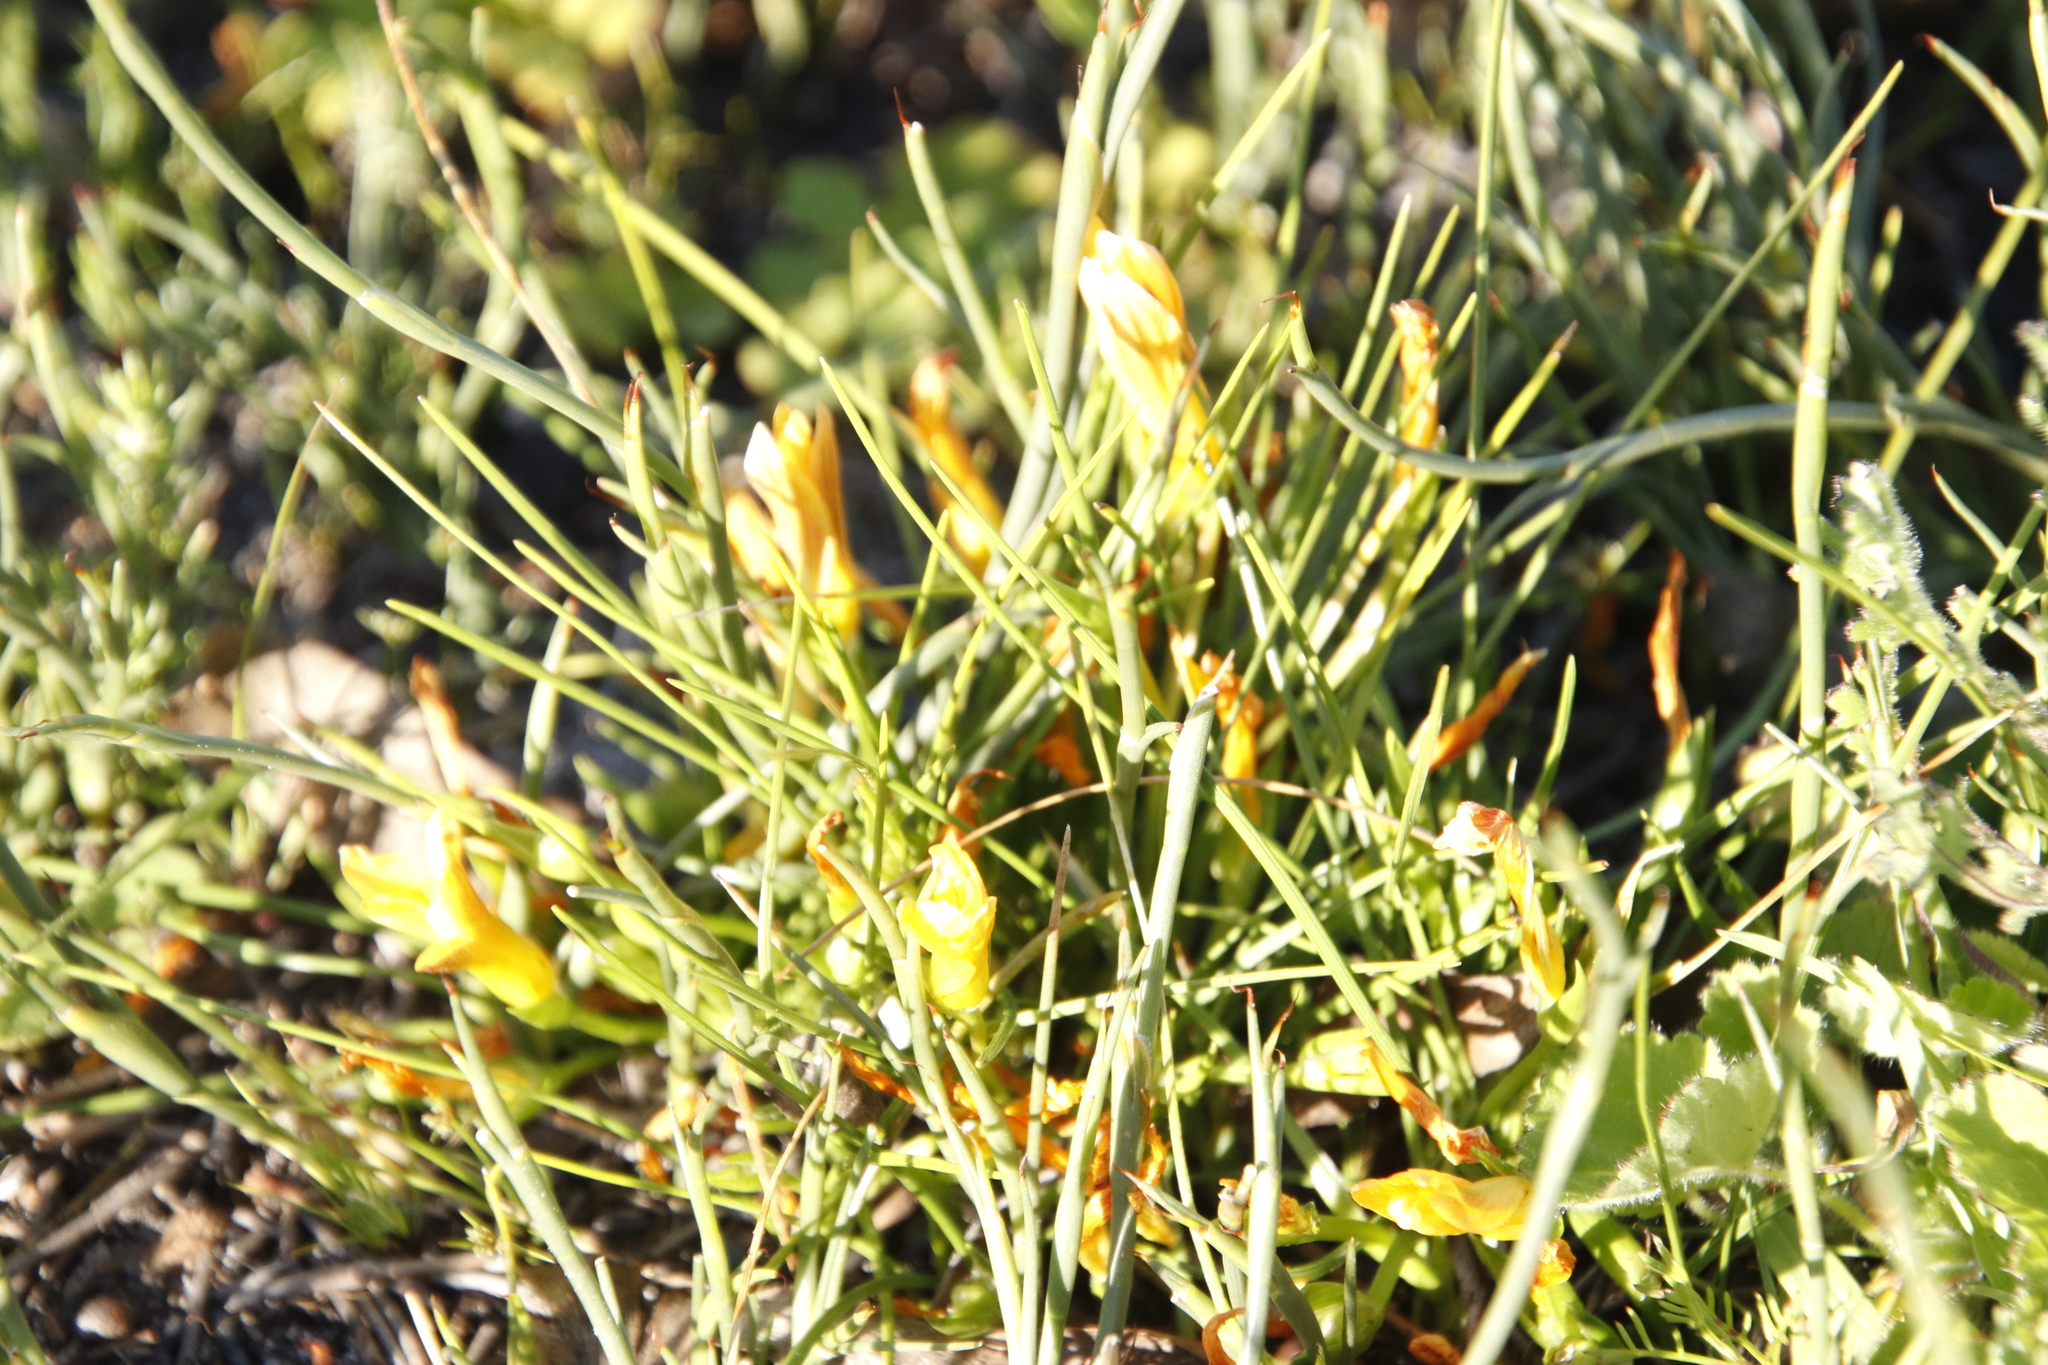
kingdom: Plantae
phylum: Tracheophyta
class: Liliopsida
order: Asparagales
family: Iridaceae
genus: Romulea
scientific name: Romulea triflora
